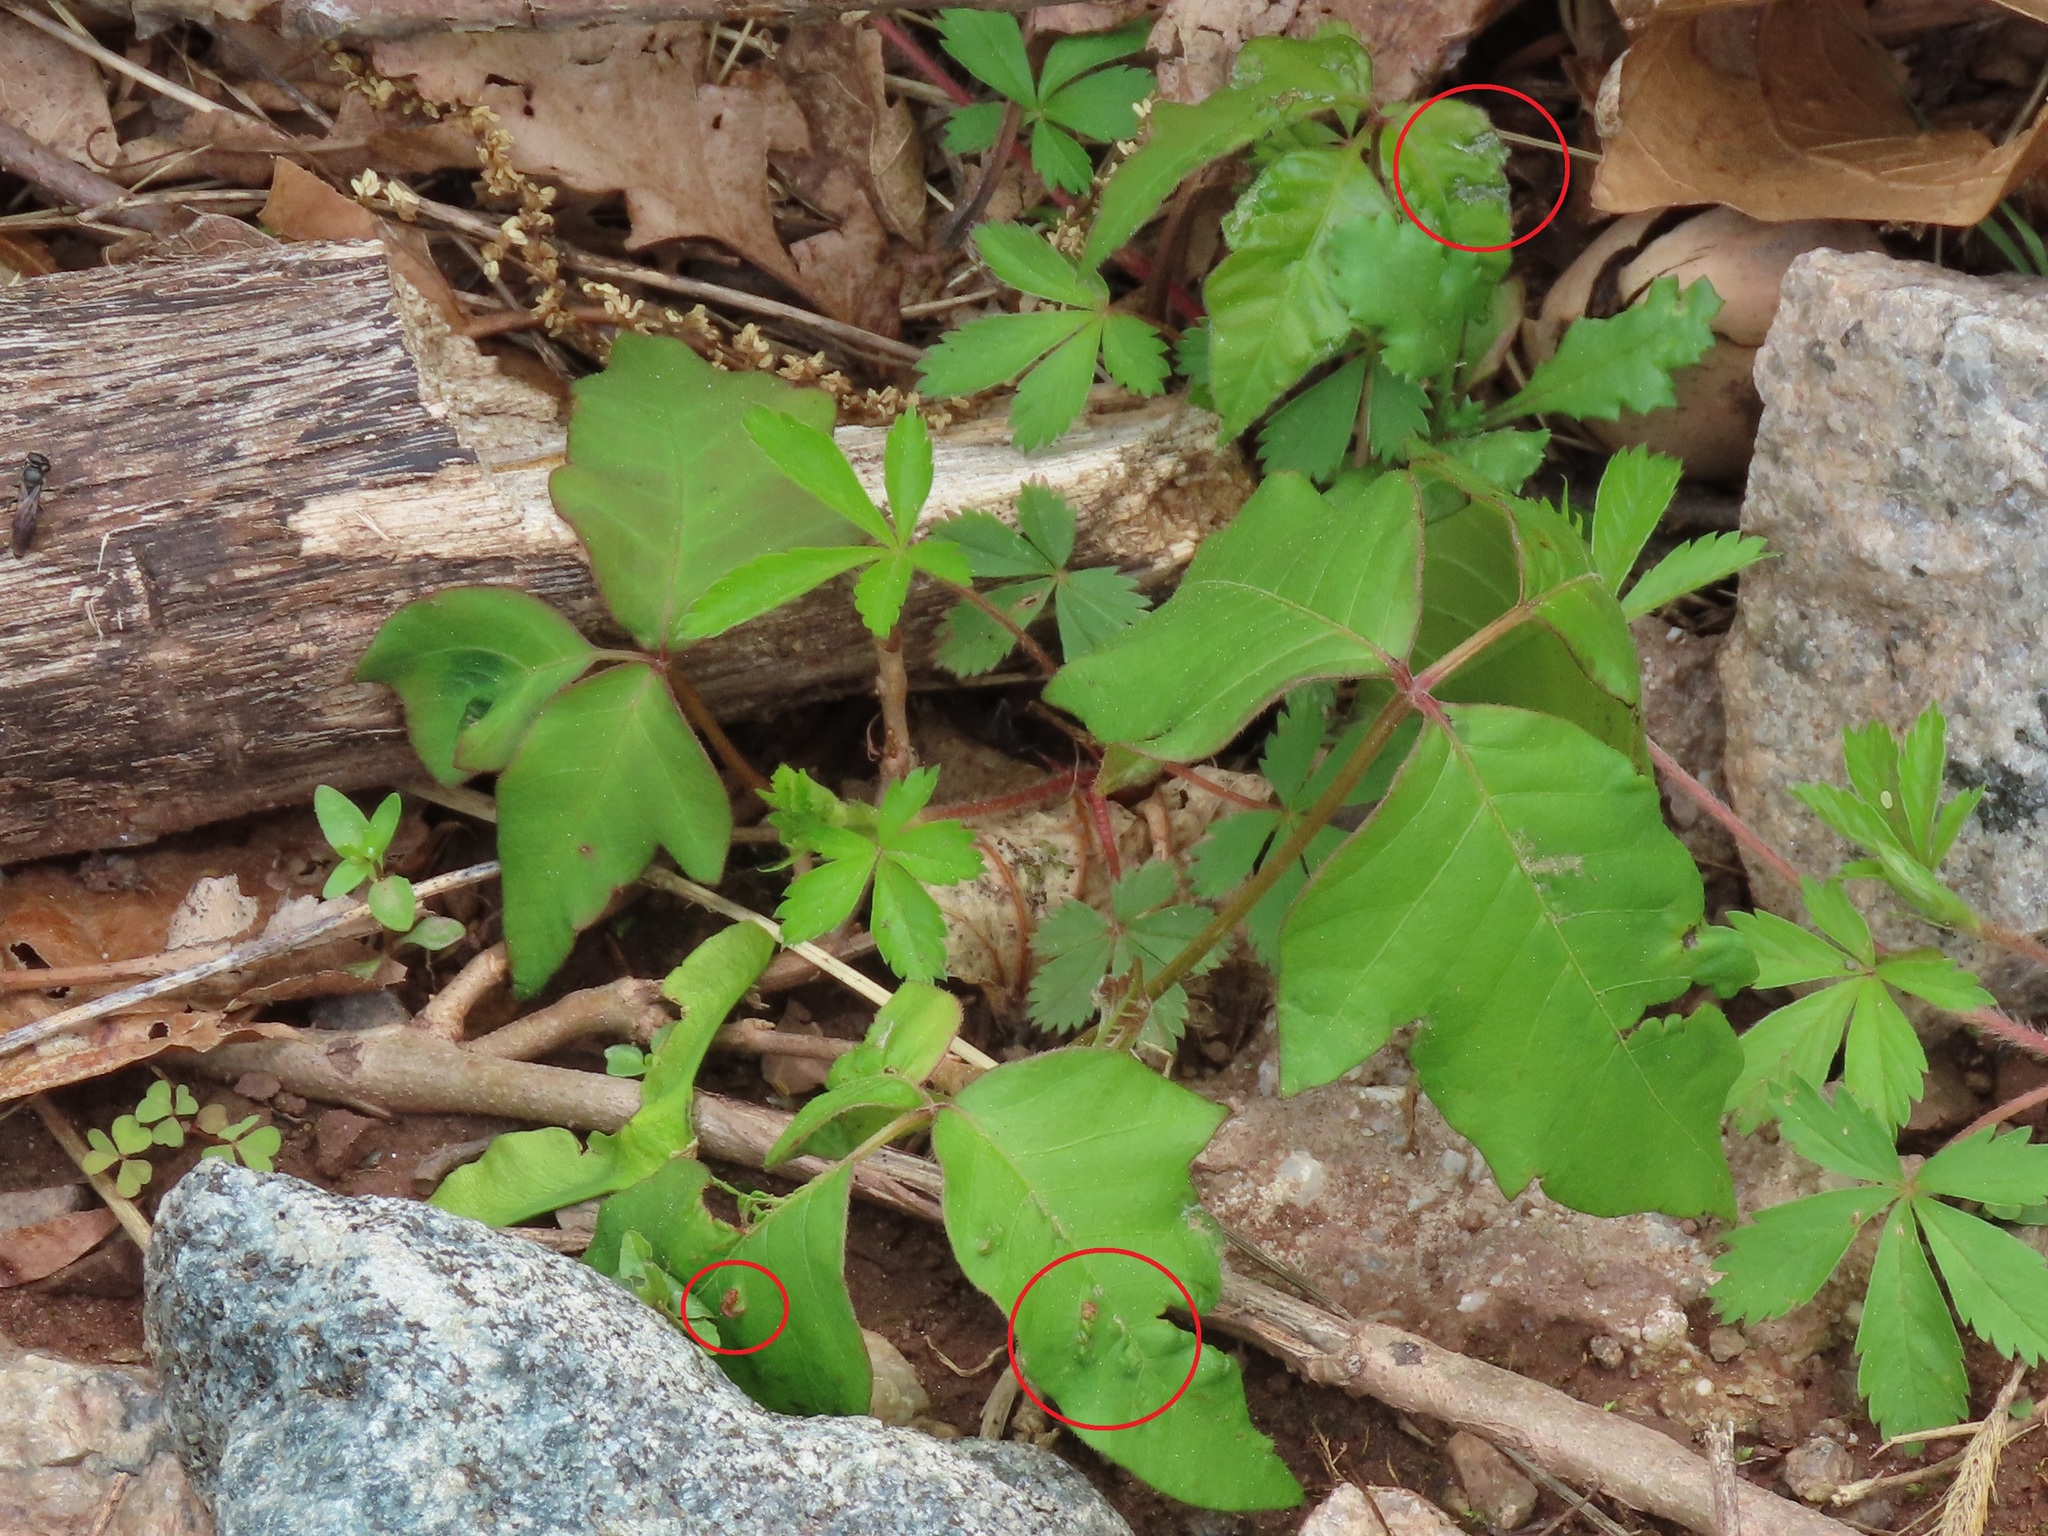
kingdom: Animalia
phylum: Arthropoda
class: Arachnida
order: Trombidiformes
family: Eriophyidae
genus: Aculops
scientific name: Aculops
